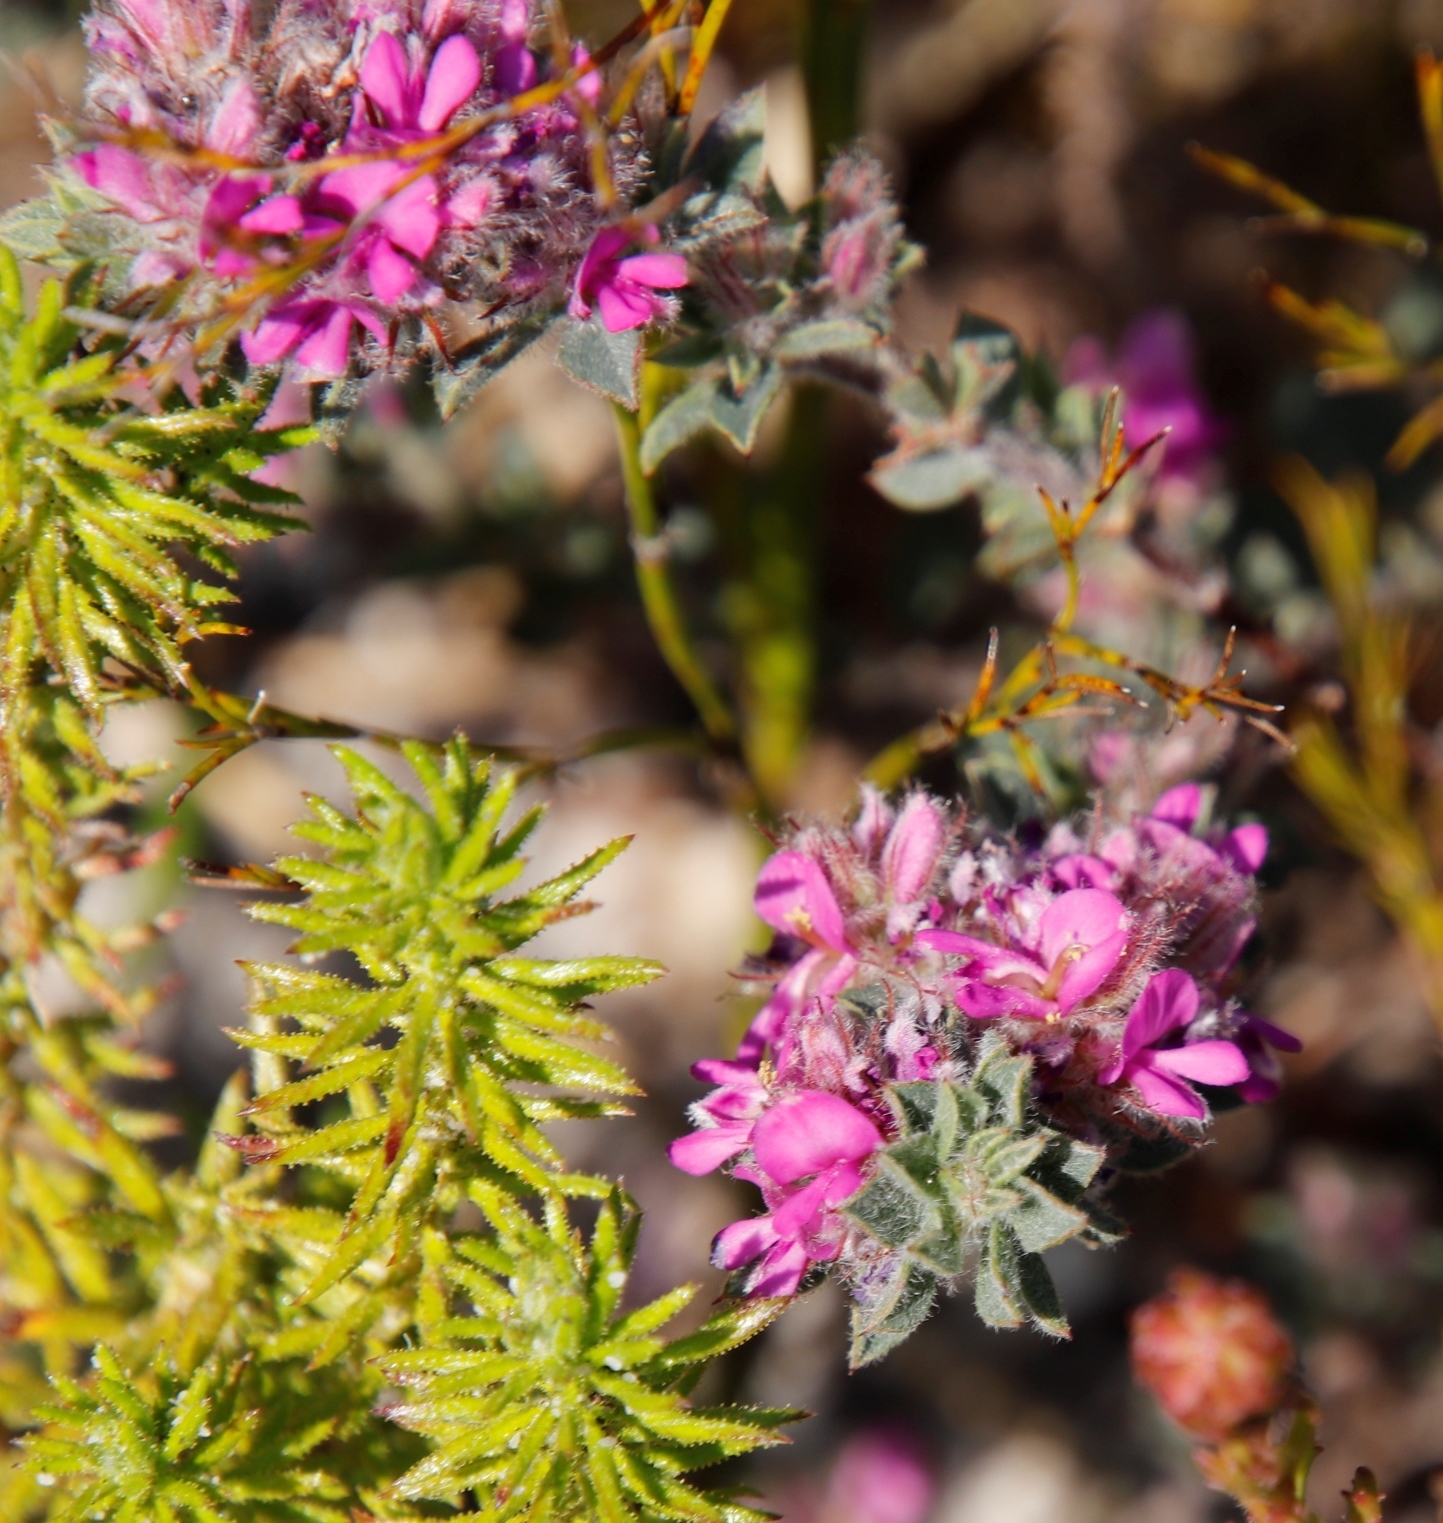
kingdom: Plantae
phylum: Tracheophyta
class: Magnoliopsida
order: Fabales
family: Fabaceae
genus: Indigofera
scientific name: Indigofera glomerata
